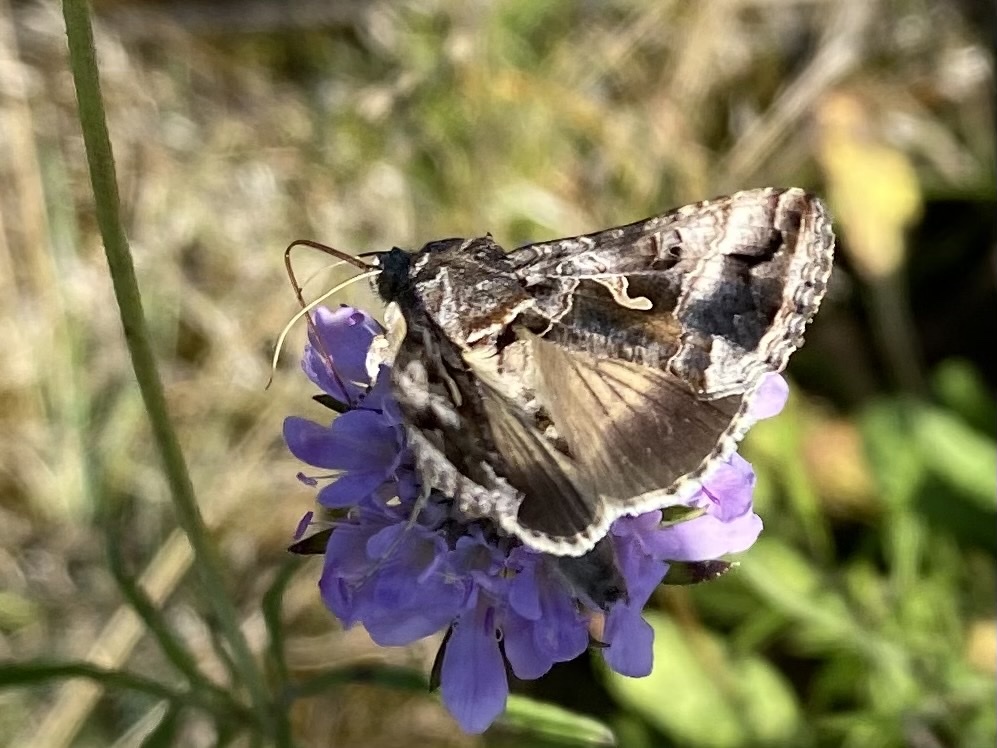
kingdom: Animalia
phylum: Arthropoda
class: Insecta
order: Lepidoptera
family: Noctuidae
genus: Autographa
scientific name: Autographa gamma
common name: Silver y
